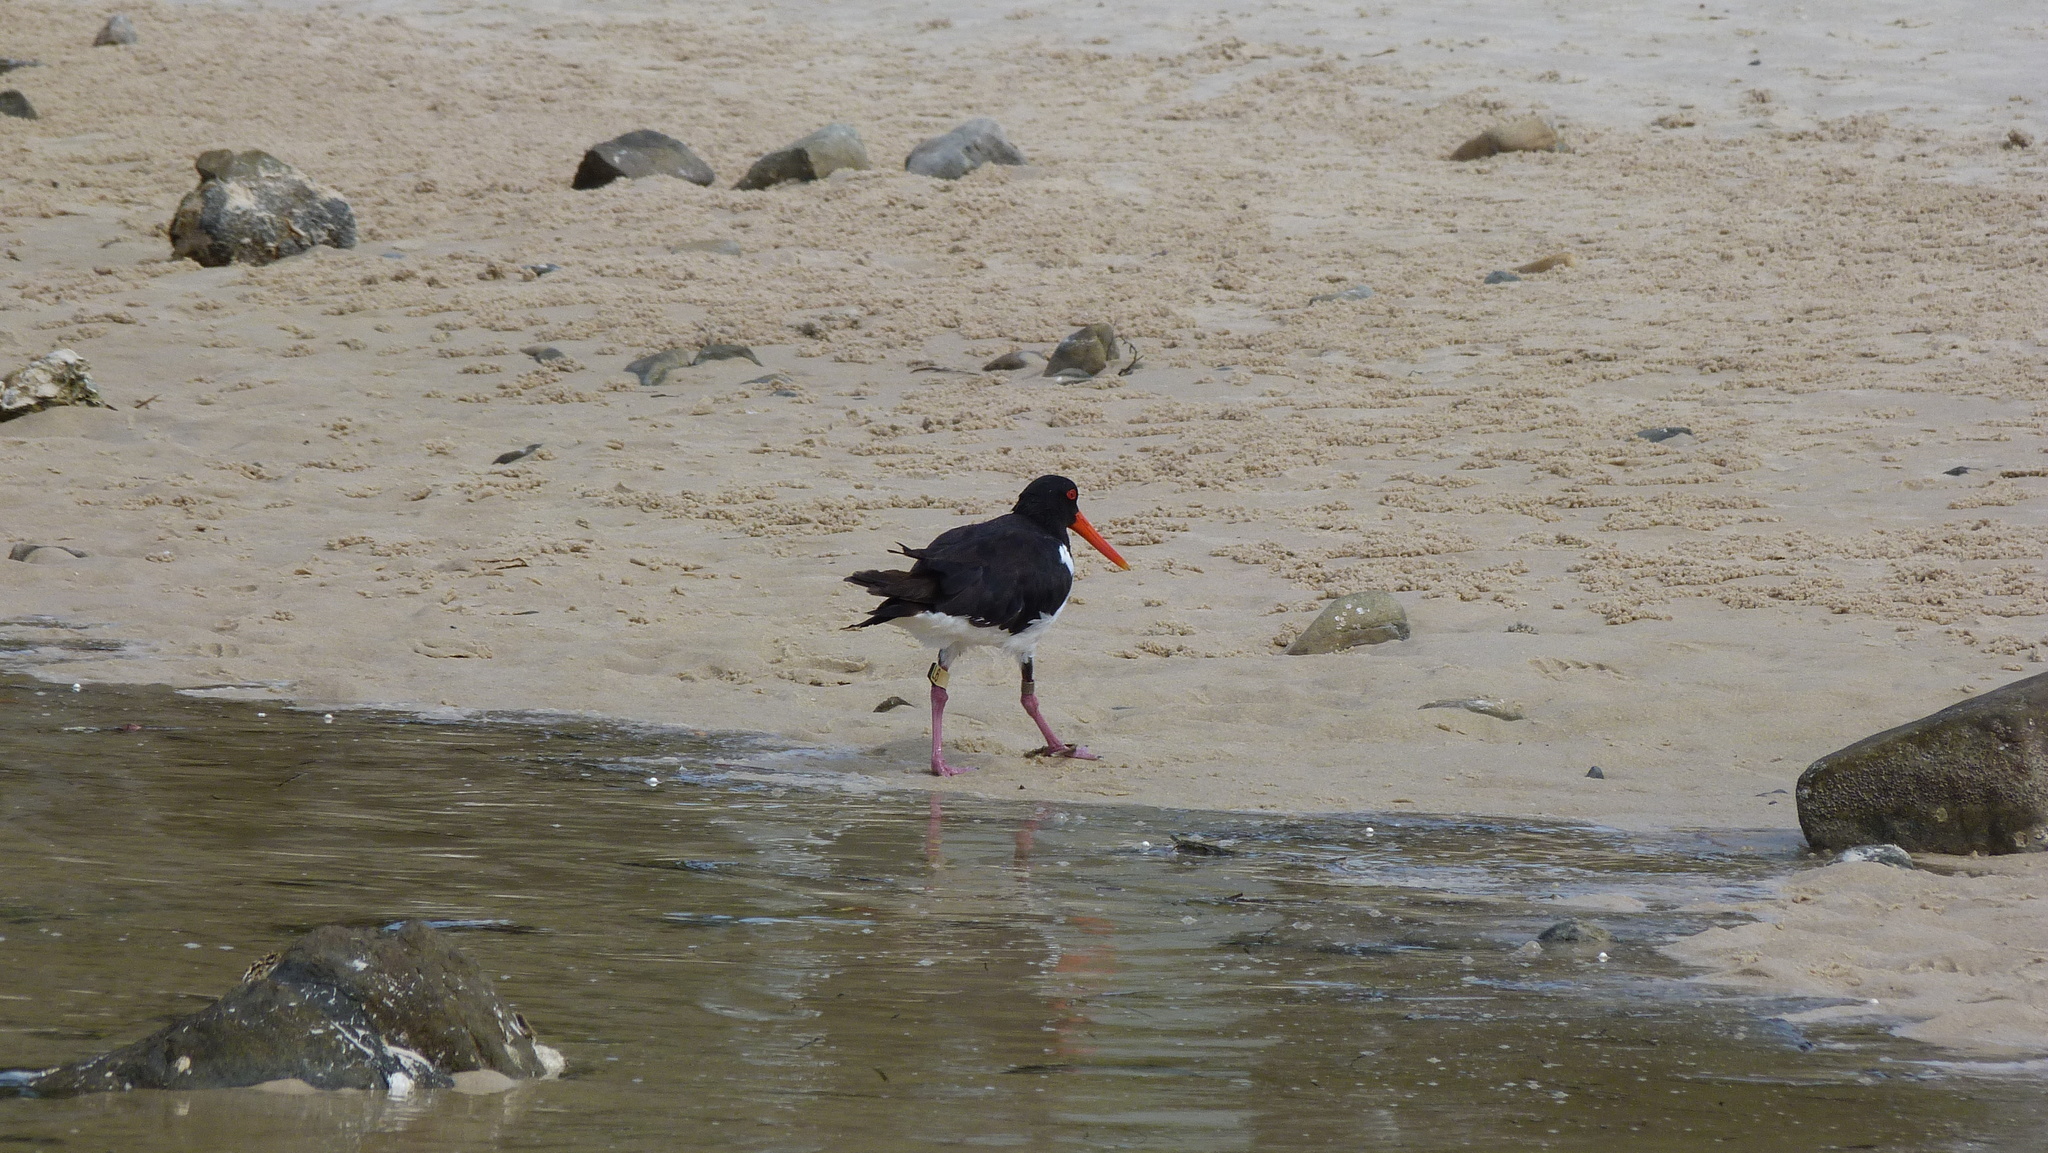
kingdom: Animalia
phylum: Chordata
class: Aves
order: Charadriiformes
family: Haematopodidae
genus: Haematopus
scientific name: Haematopus longirostris
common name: Pied oystercatcher
